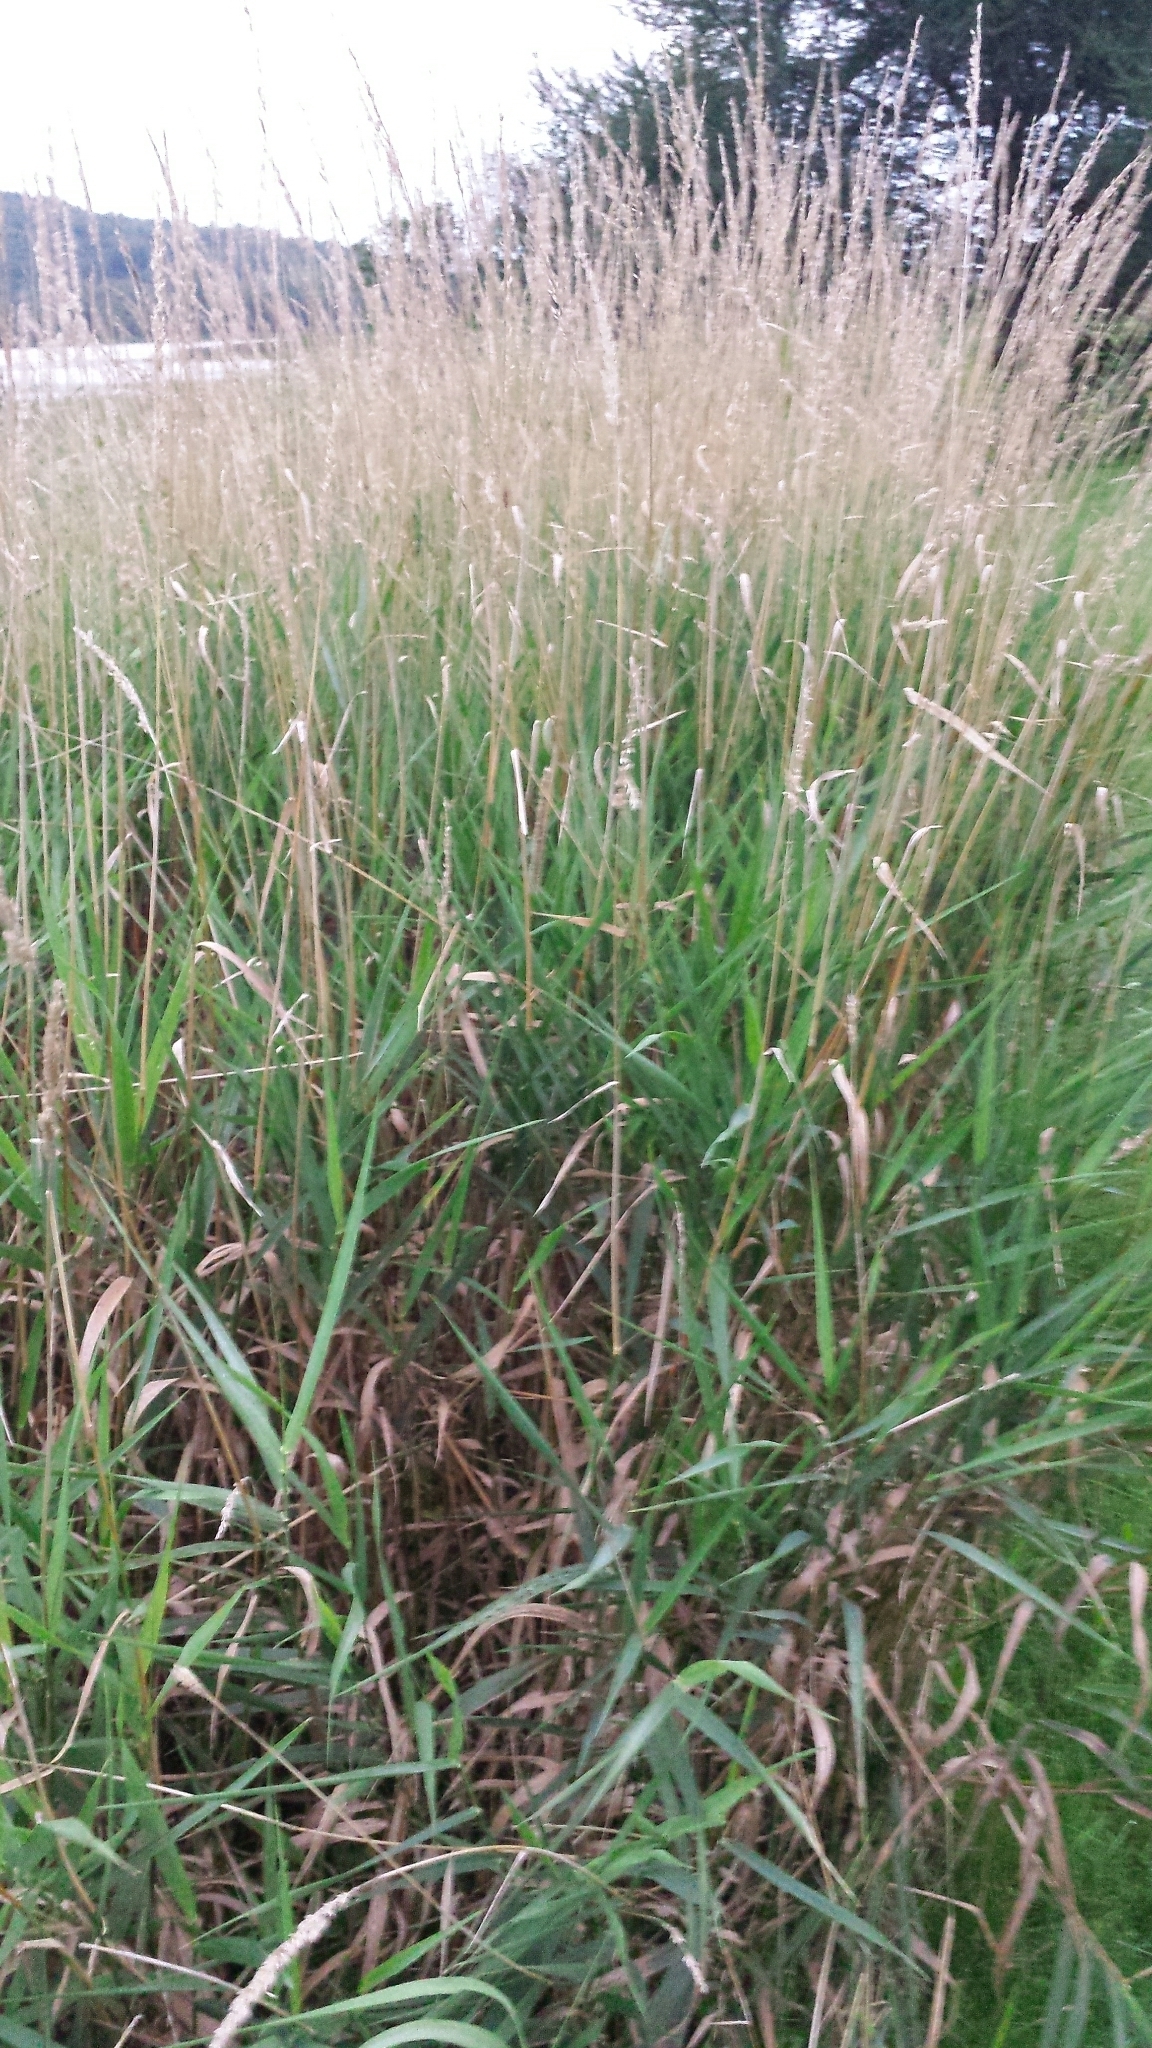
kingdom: Plantae
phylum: Tracheophyta
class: Liliopsida
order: Poales
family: Poaceae
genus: Phalaris
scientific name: Phalaris arundinacea
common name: Reed canary-grass
